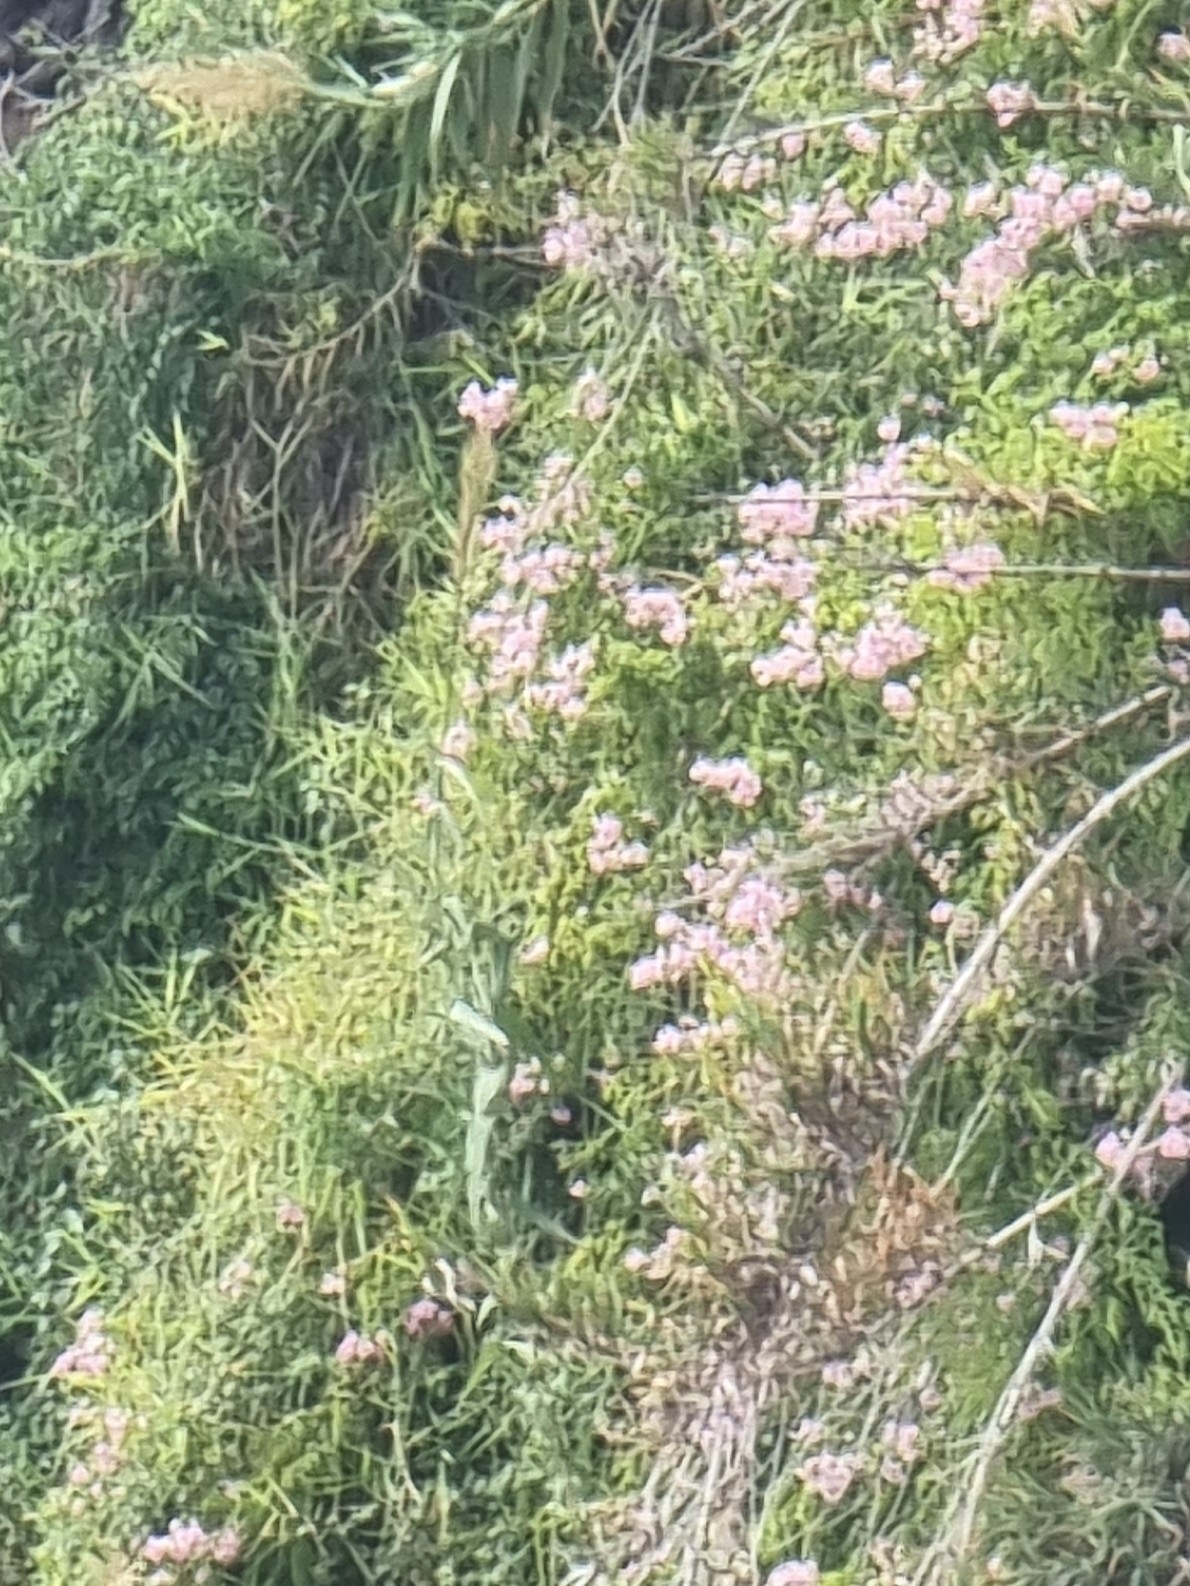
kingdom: Plantae
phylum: Tracheophyta
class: Magnoliopsida
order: Lamiales
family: Bignoniaceae
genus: Podranea
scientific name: Podranea ricasoliana
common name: Zimbabwe creeper
